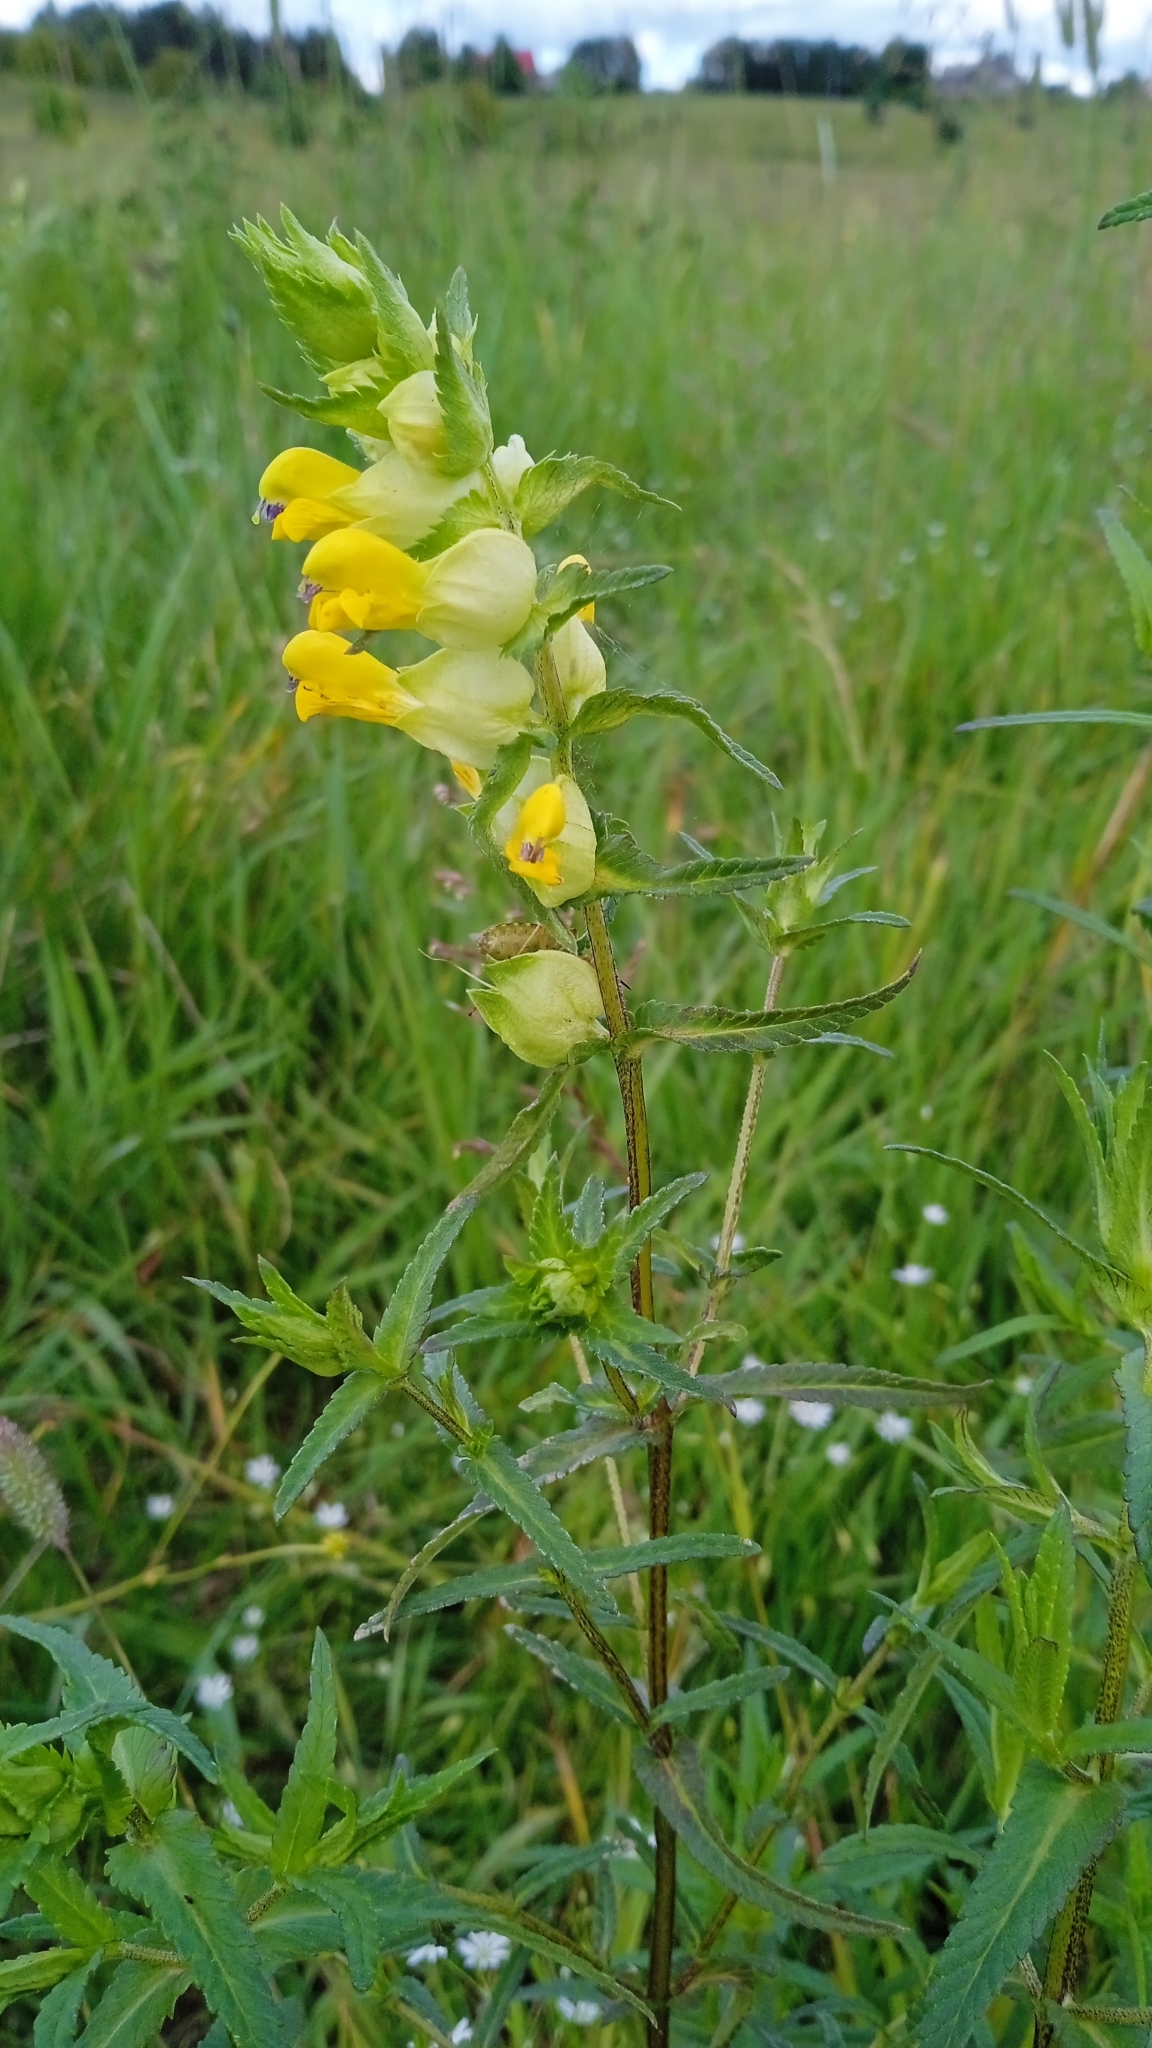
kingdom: Plantae
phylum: Tracheophyta
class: Magnoliopsida
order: Lamiales
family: Orobanchaceae
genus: Rhinanthus
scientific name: Rhinanthus serotinus
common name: Late-flowering yellow rattle
